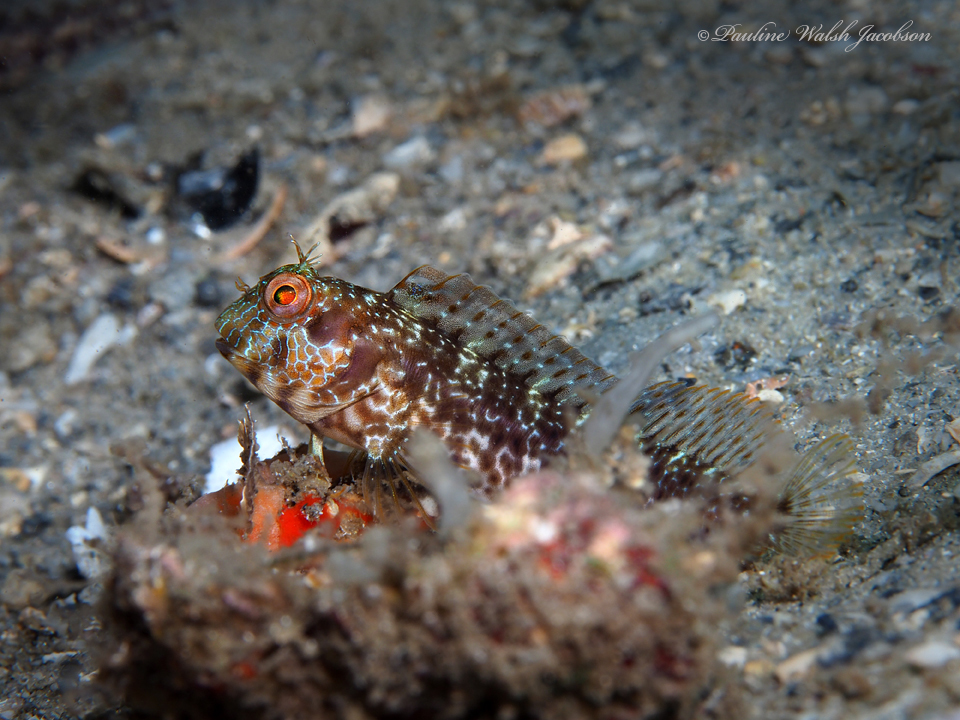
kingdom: Animalia
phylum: Chordata
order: Perciformes
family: Blenniidae
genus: Parablennius
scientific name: Parablennius marmoreus
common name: Seaweed blenny
